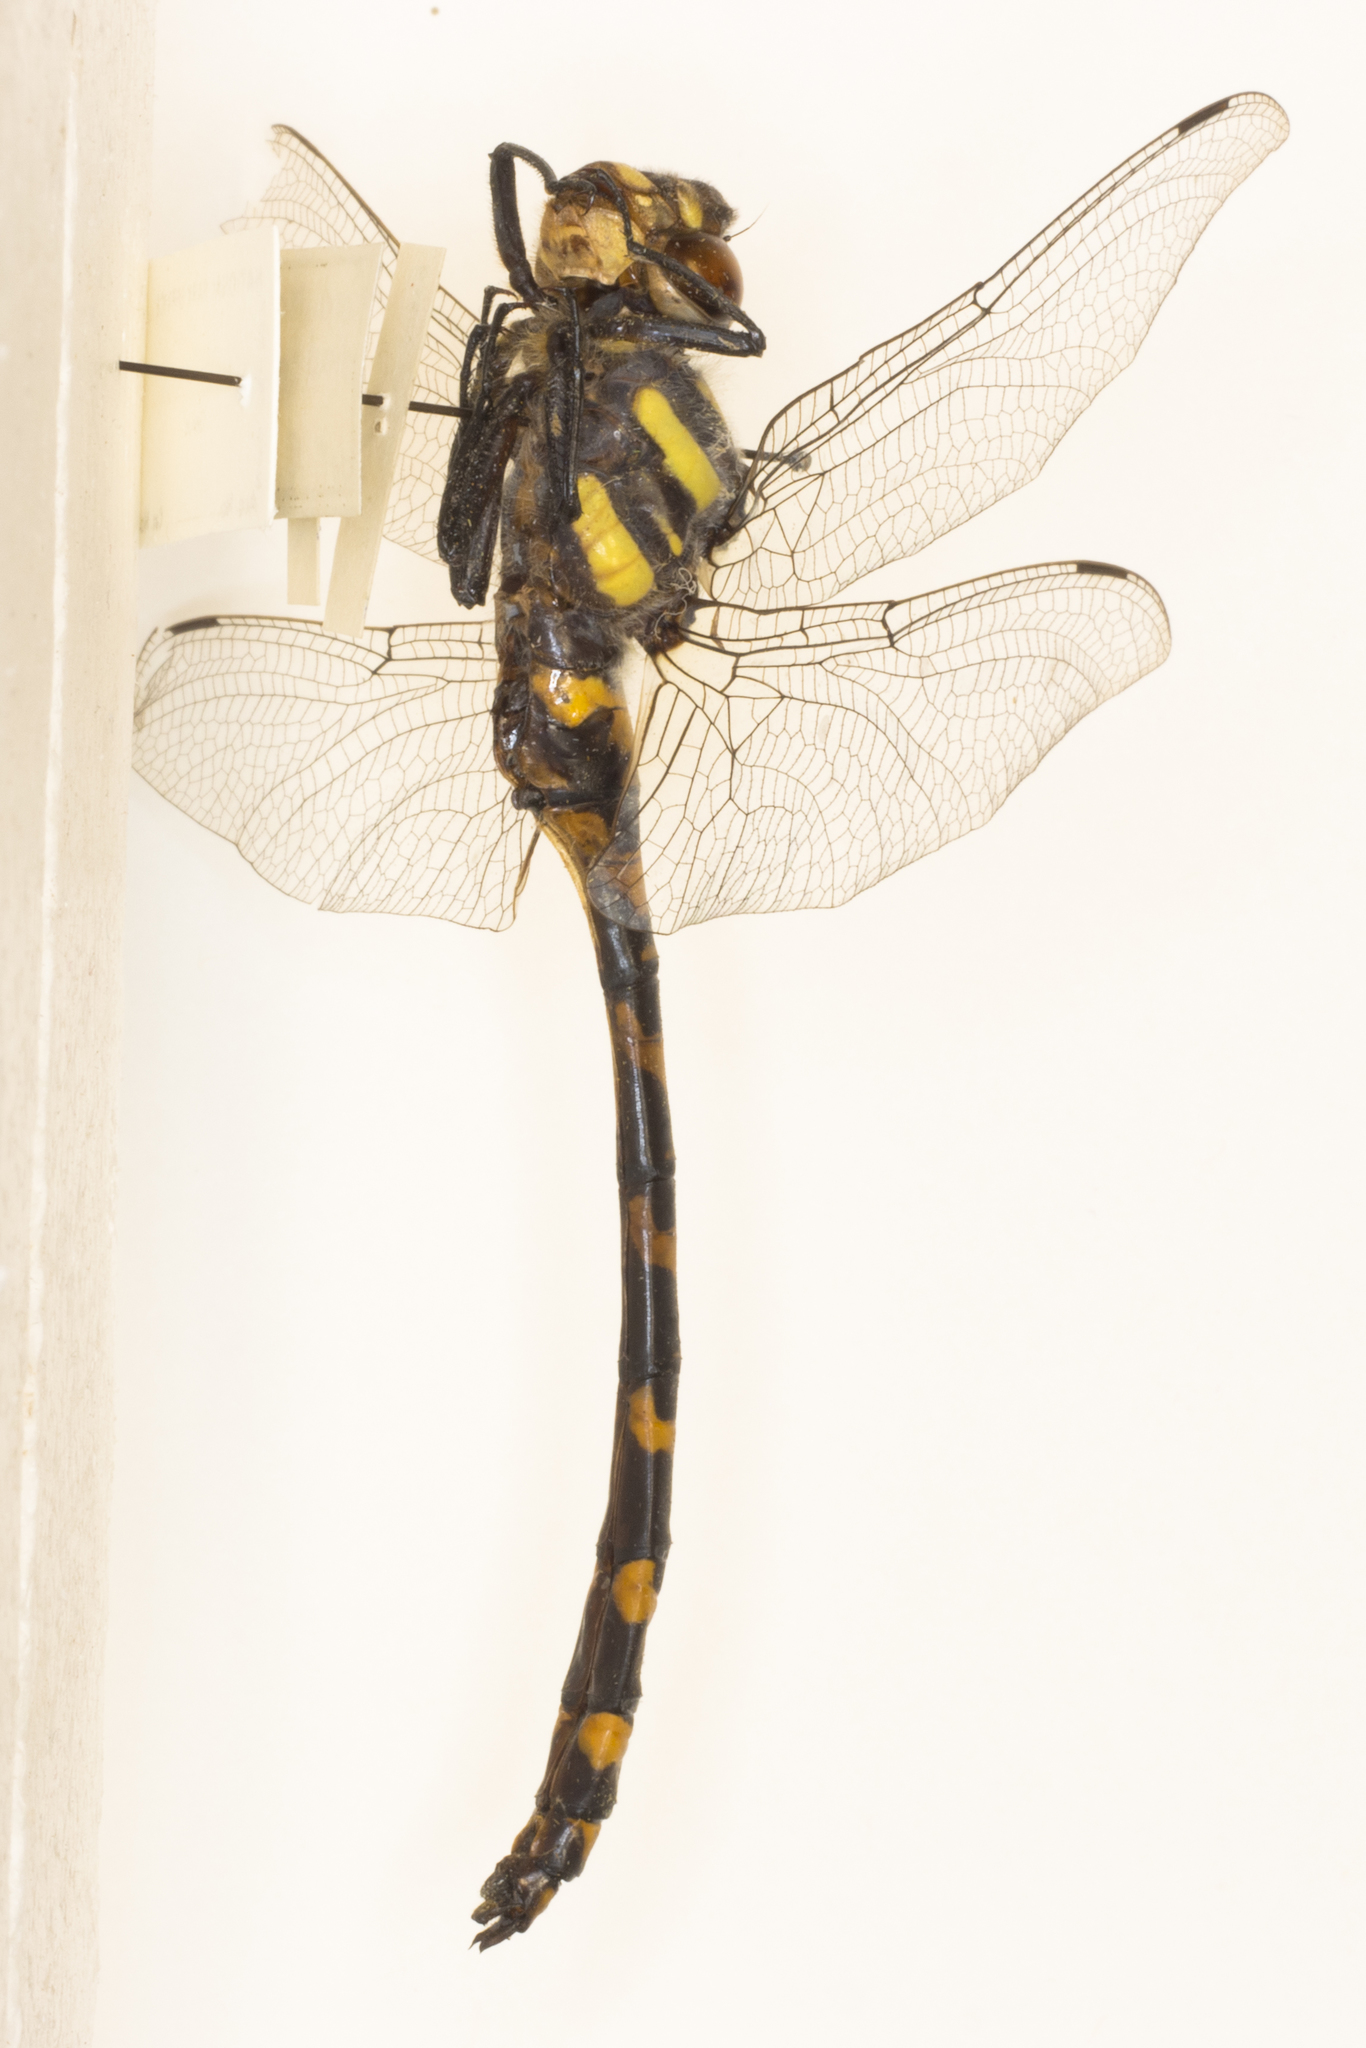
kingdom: Animalia
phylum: Arthropoda
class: Insecta
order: Odonata
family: Cordulegastridae
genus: Cordulegaster
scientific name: Cordulegaster diadema
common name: Apache spiketail
